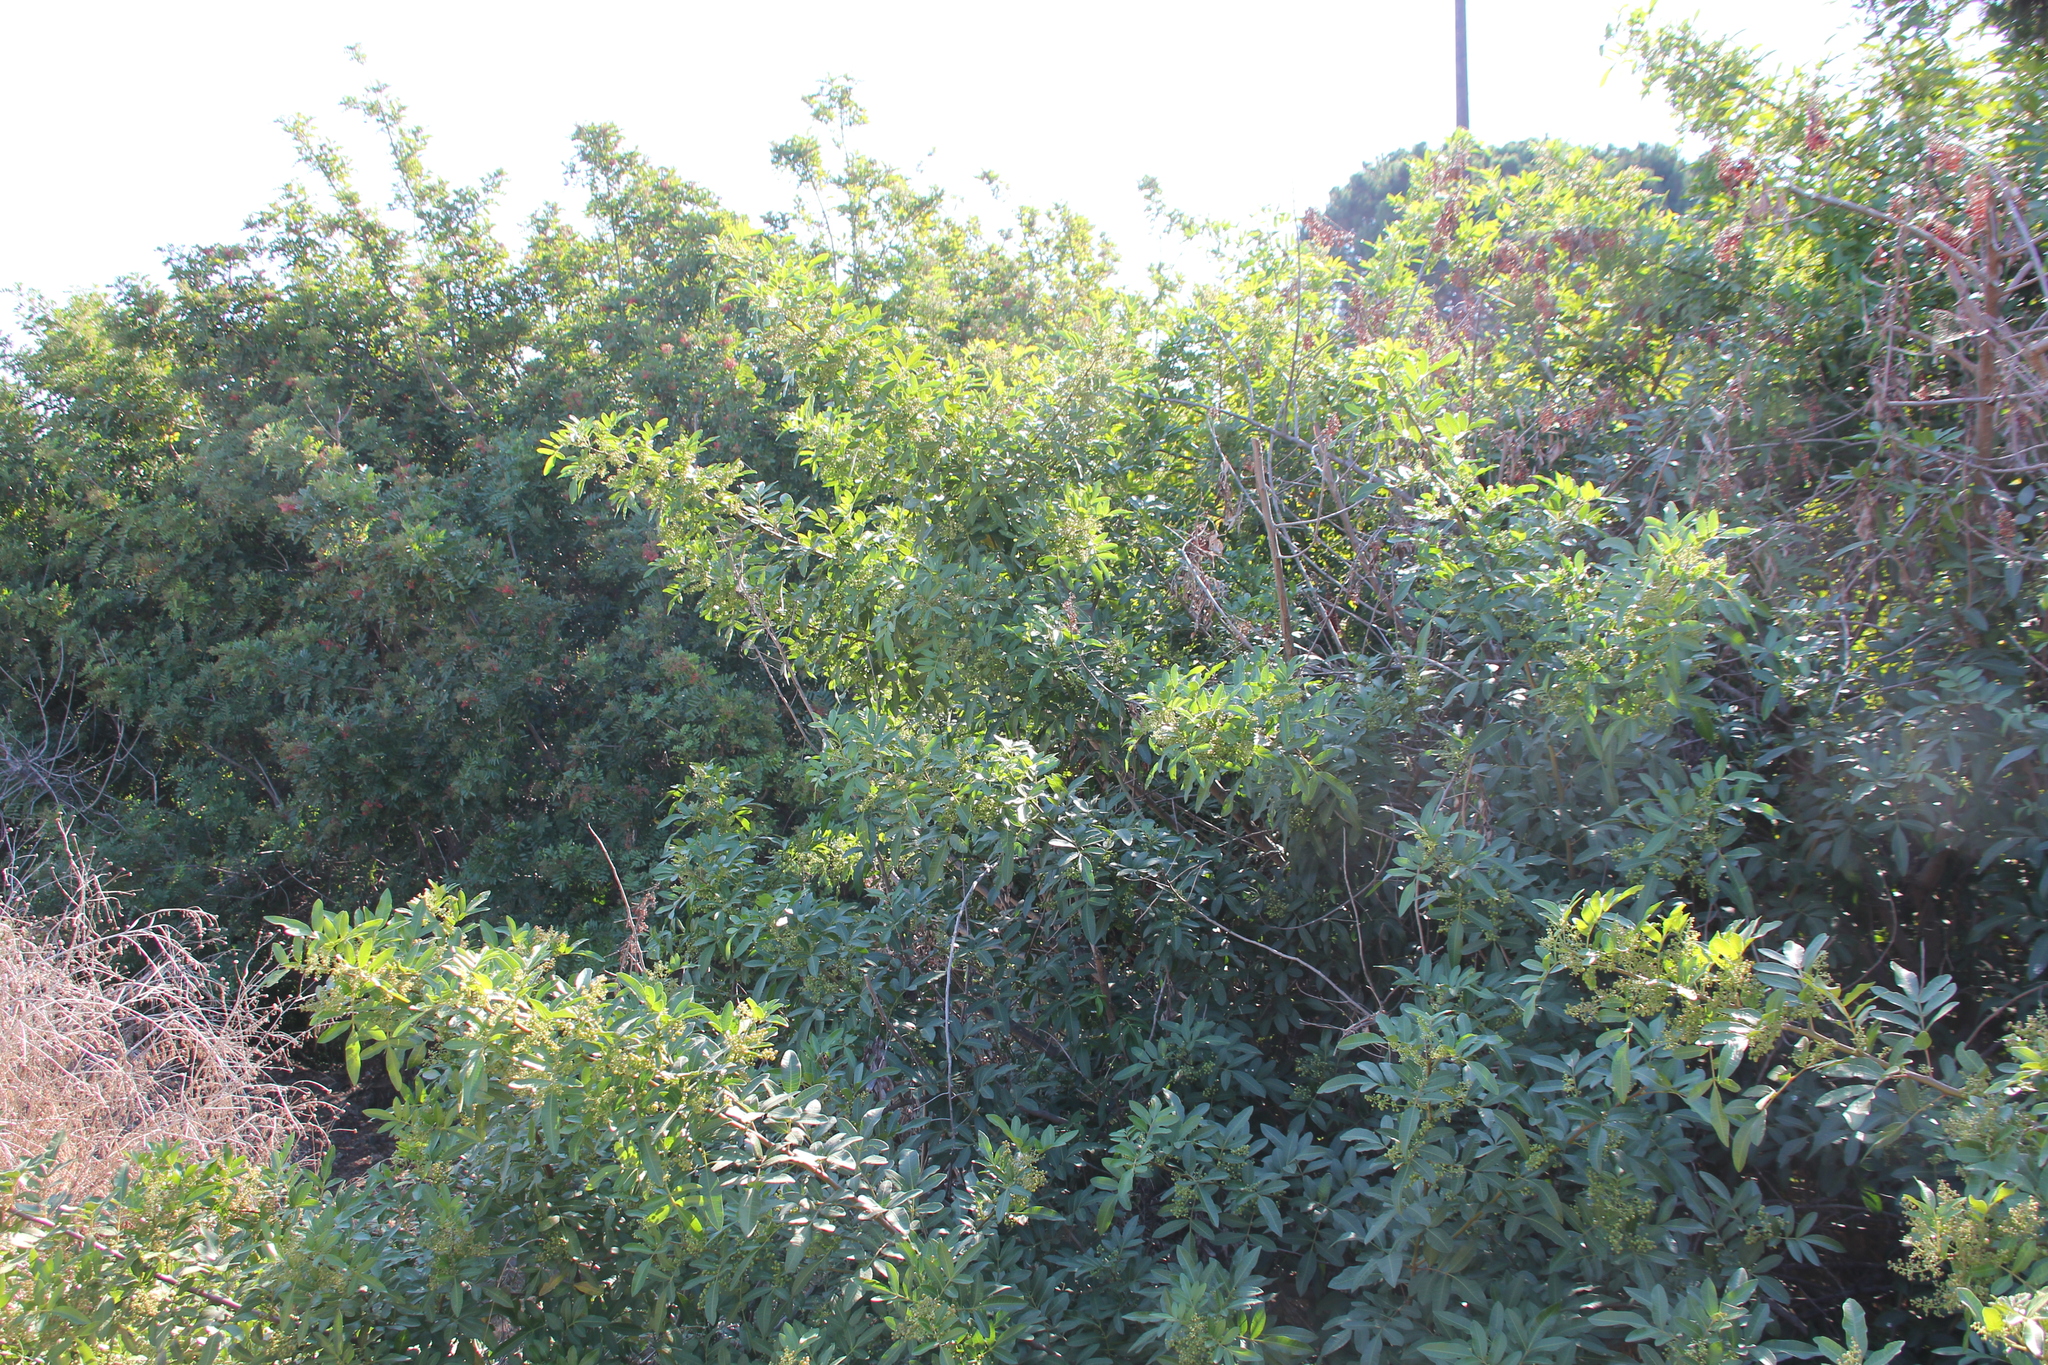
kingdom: Plantae
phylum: Tracheophyta
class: Magnoliopsida
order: Sapindales
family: Anacardiaceae
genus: Schinus
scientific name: Schinus terebinthifolia
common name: Brazilian peppertree
